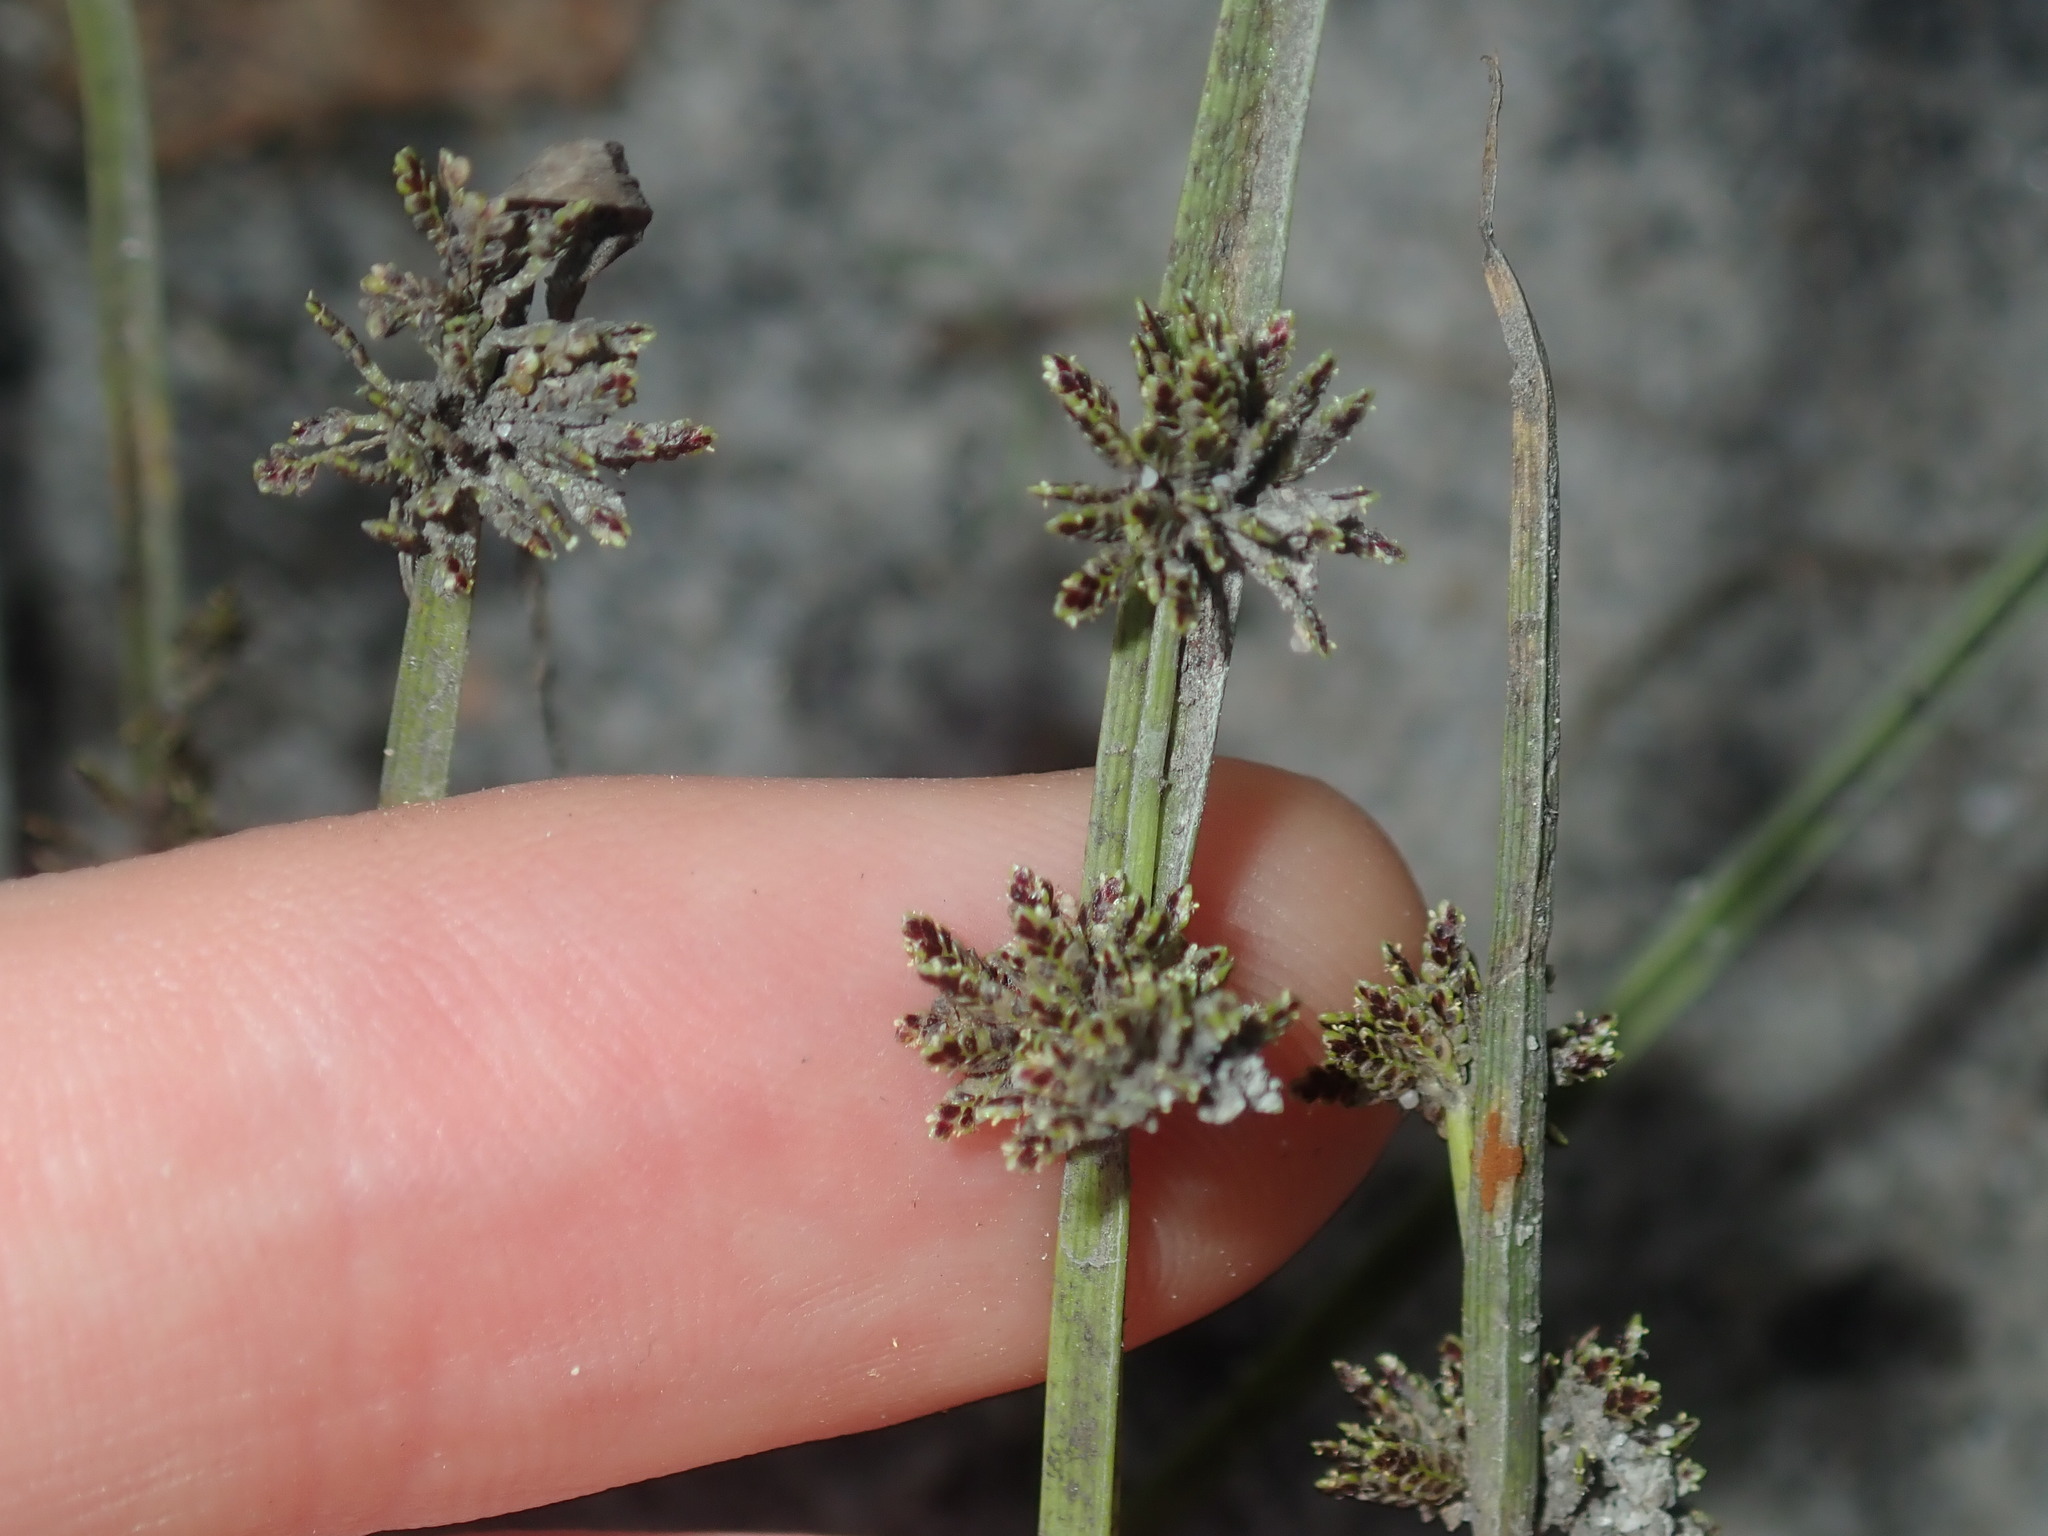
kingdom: Plantae
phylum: Tracheophyta
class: Liliopsida
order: Poales
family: Cyperaceae
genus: Cyperus
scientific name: Cyperus difformis
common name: Variable flatsedge
